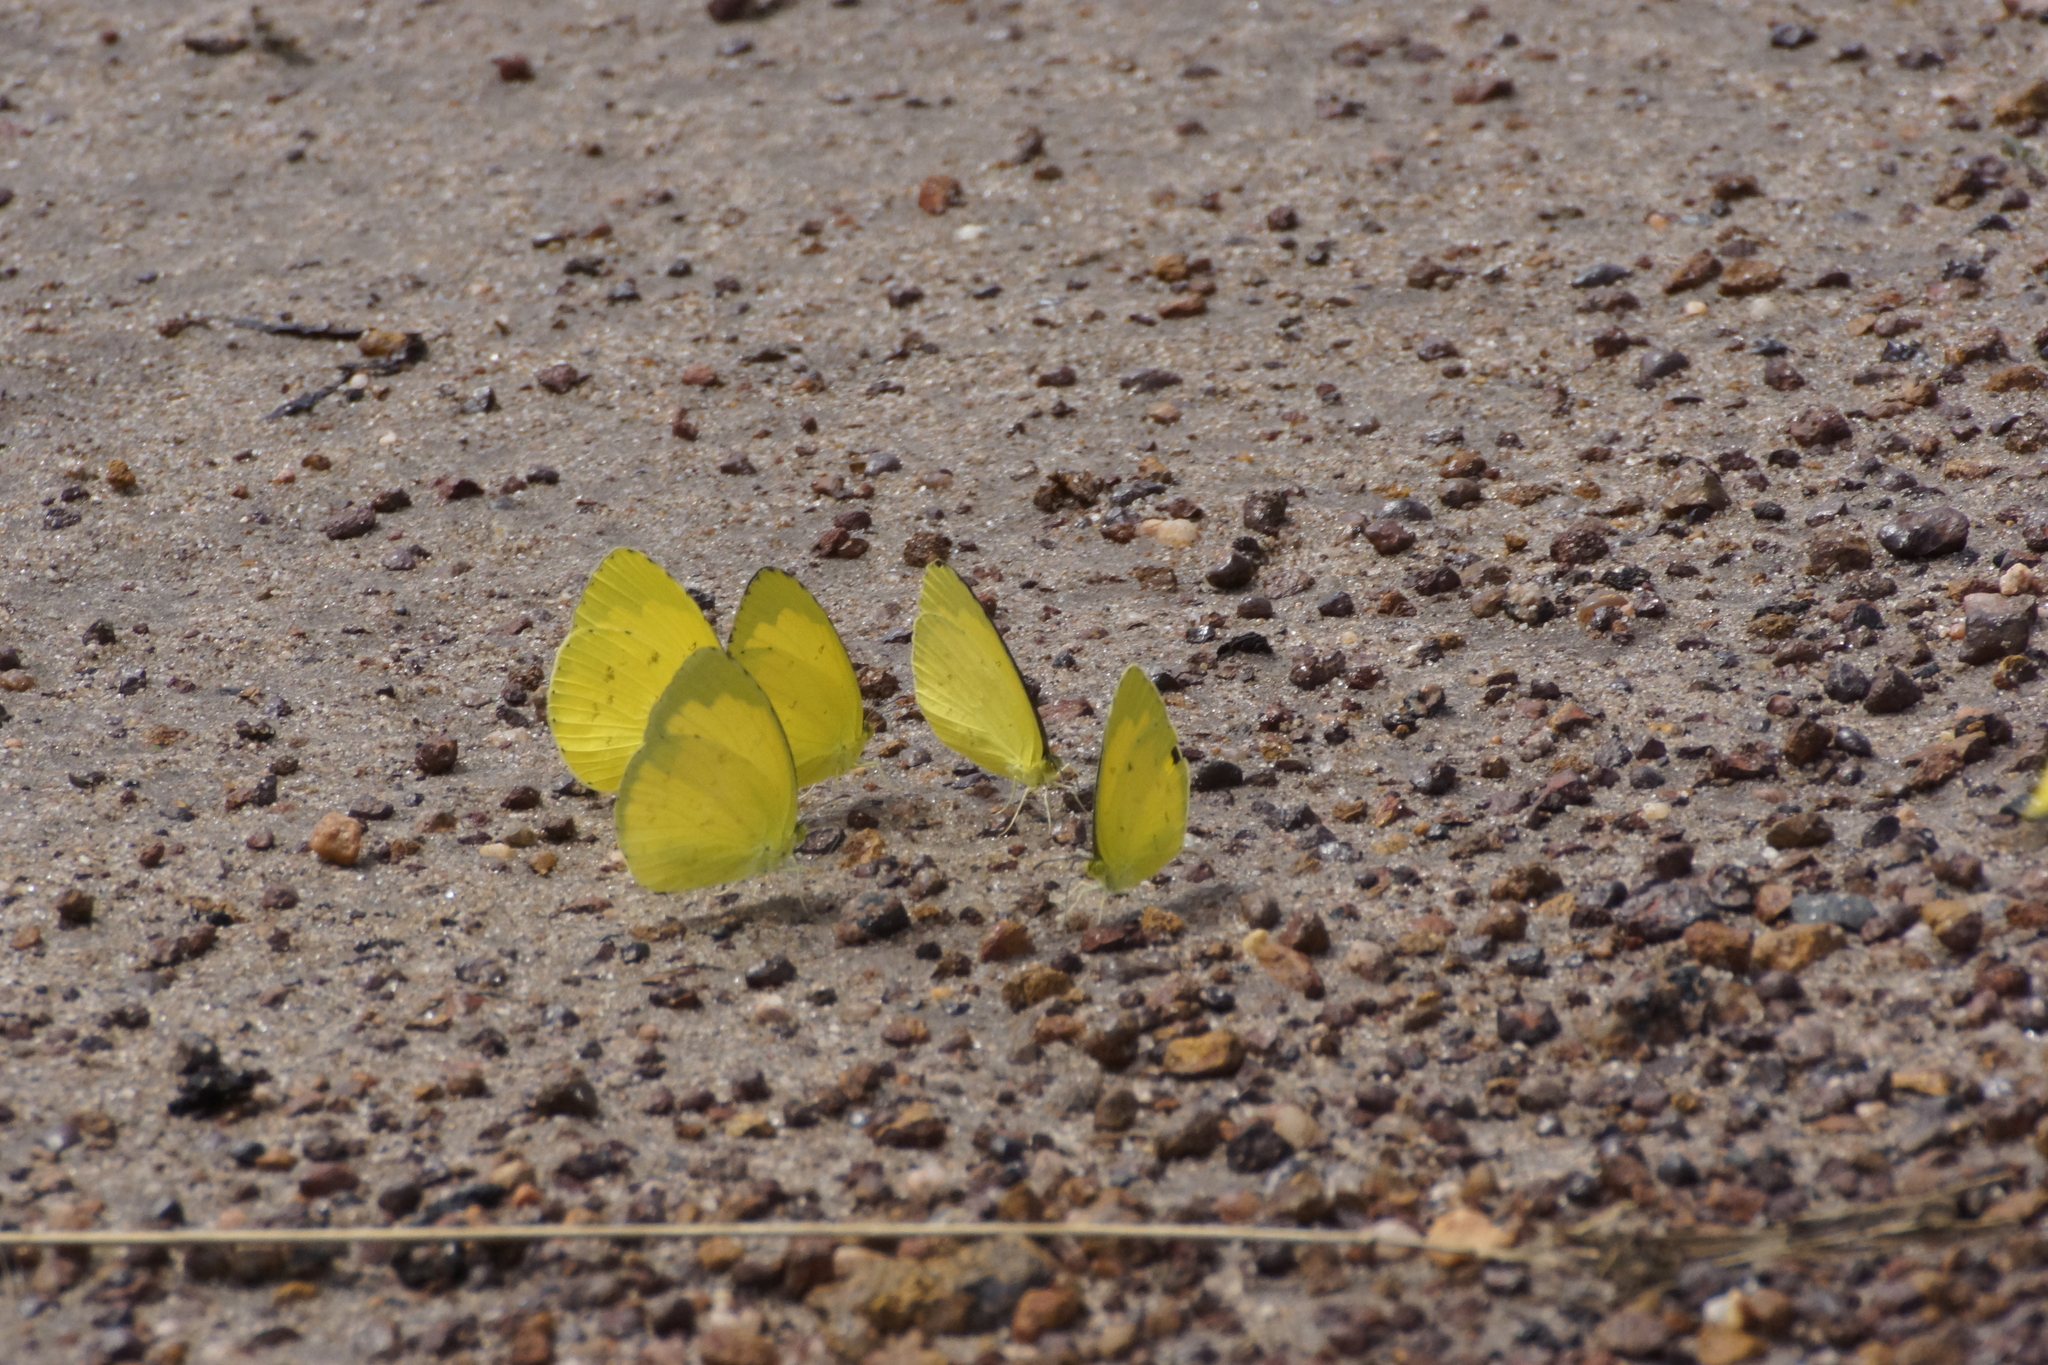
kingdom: Animalia
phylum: Arthropoda
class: Insecta
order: Lepidoptera
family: Pieridae
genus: Eurema
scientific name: Eurema hecabe
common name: Pale grass yellow
